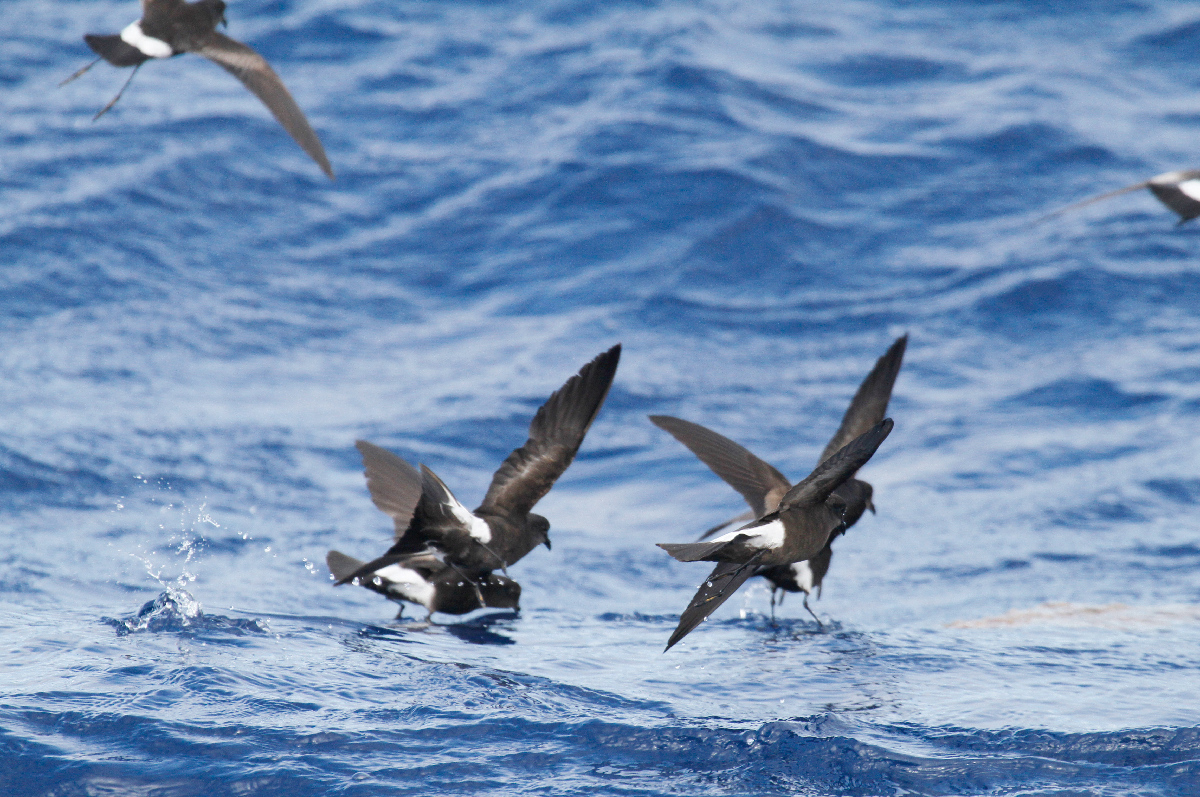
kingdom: Animalia
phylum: Chordata
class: Aves
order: Procellariiformes
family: Hydrobatidae
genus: Oceanites
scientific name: Oceanites oceanicus
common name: Wilson's storm petrel
